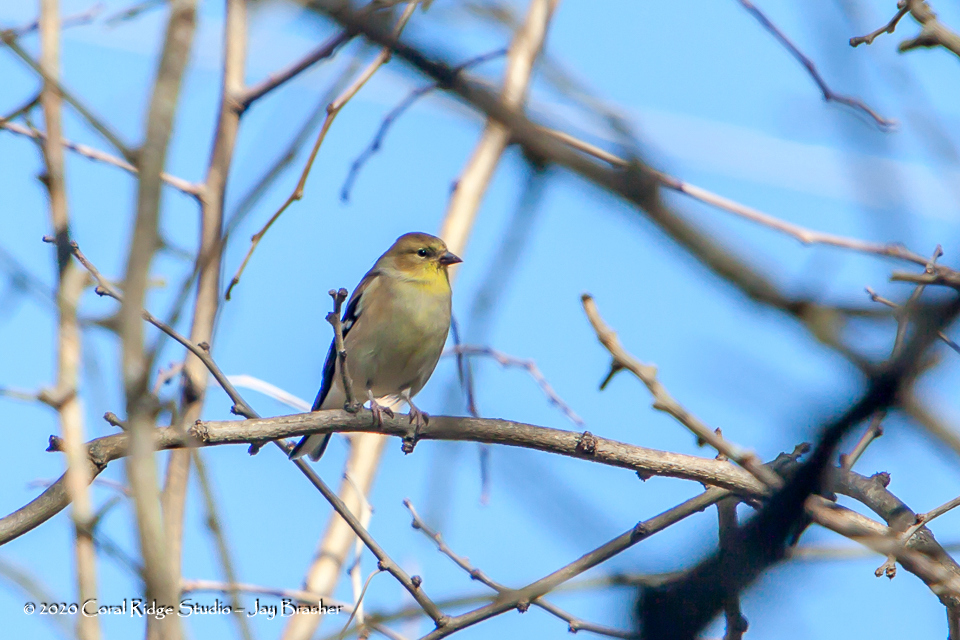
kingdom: Animalia
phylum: Chordata
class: Aves
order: Passeriformes
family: Fringillidae
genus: Spinus
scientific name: Spinus tristis
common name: American goldfinch
